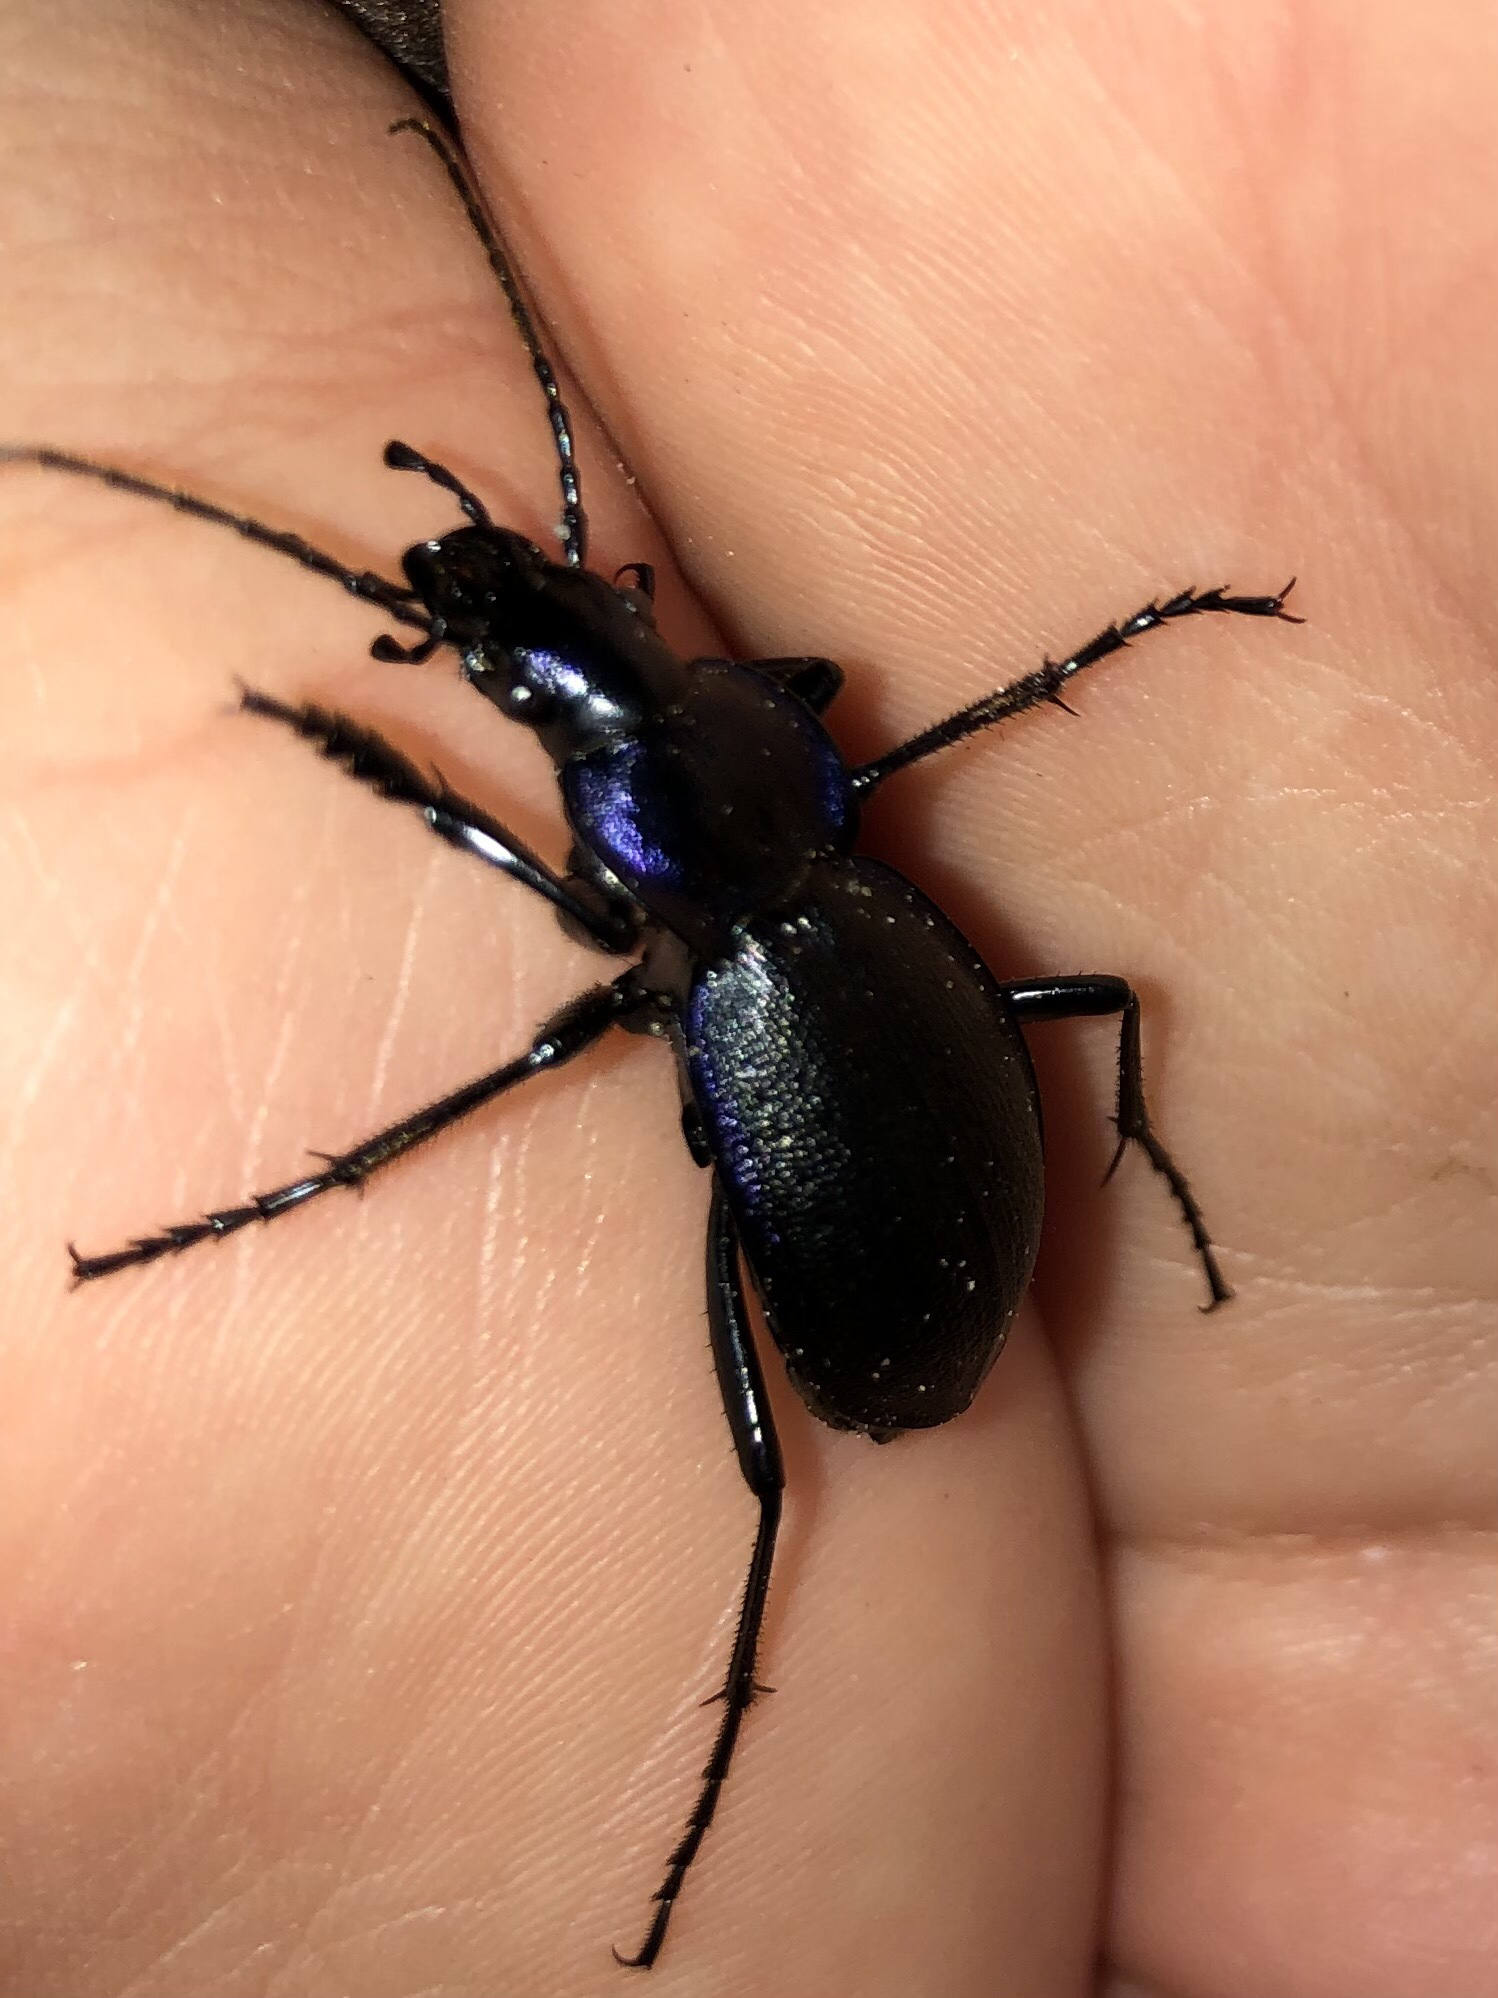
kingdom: Animalia
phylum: Arthropoda
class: Insecta
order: Coleoptera
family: Carabidae
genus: Carabus
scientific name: Carabus problematicus
